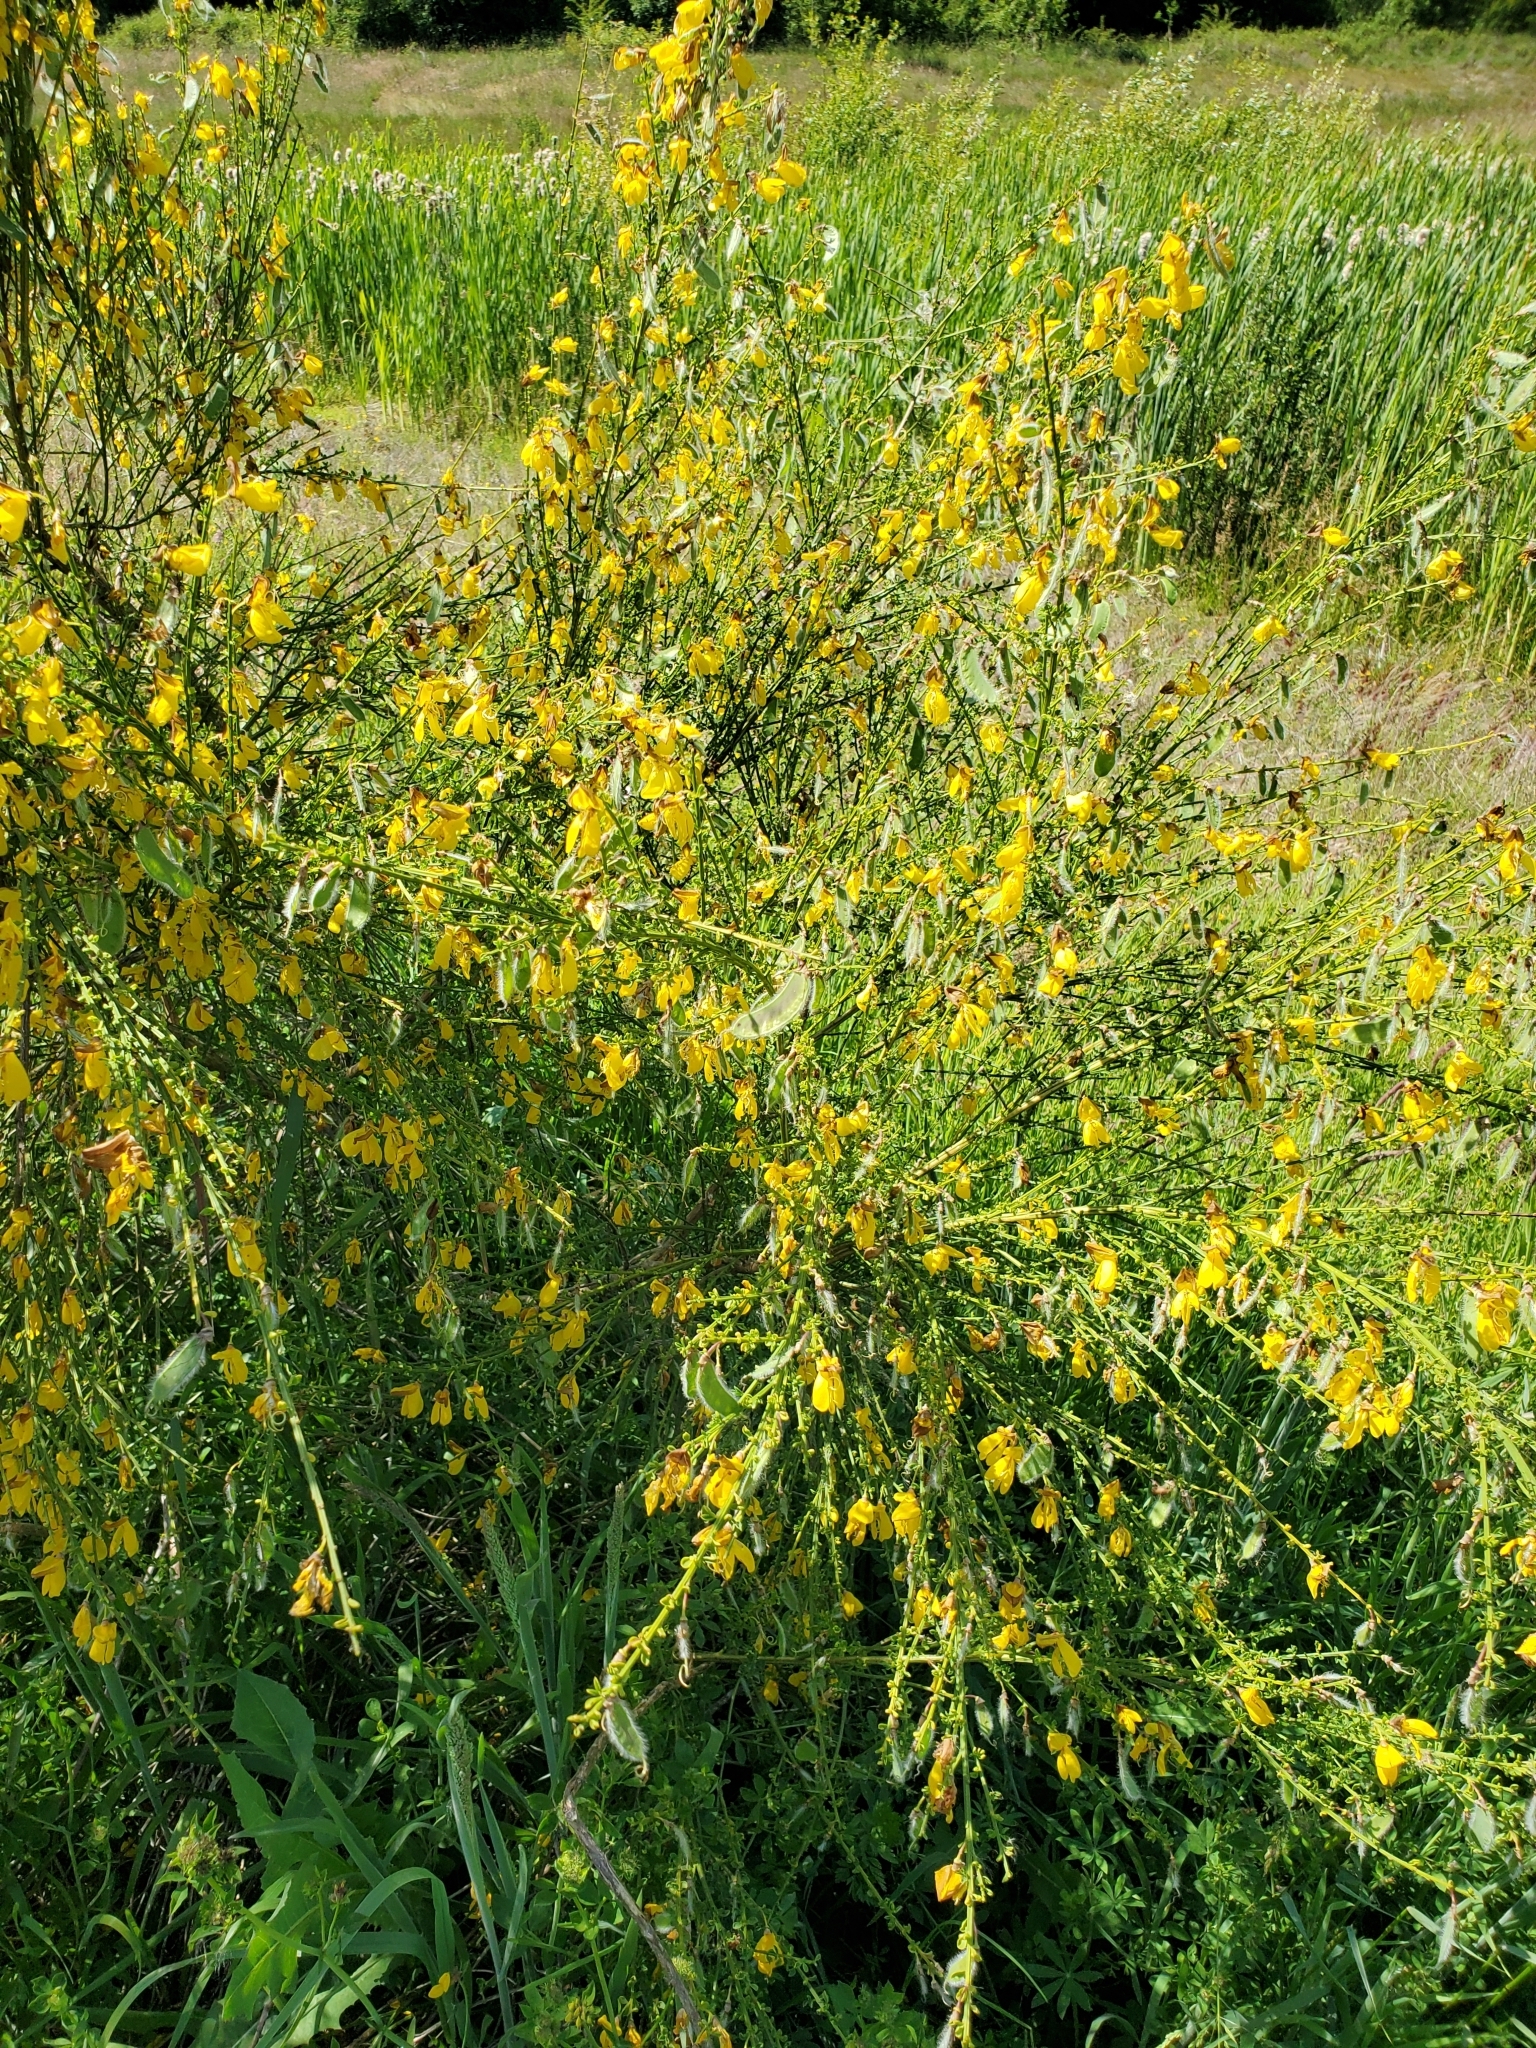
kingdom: Plantae
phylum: Tracheophyta
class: Magnoliopsida
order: Fabales
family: Fabaceae
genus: Cytisus
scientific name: Cytisus scoparius
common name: Scotch broom
